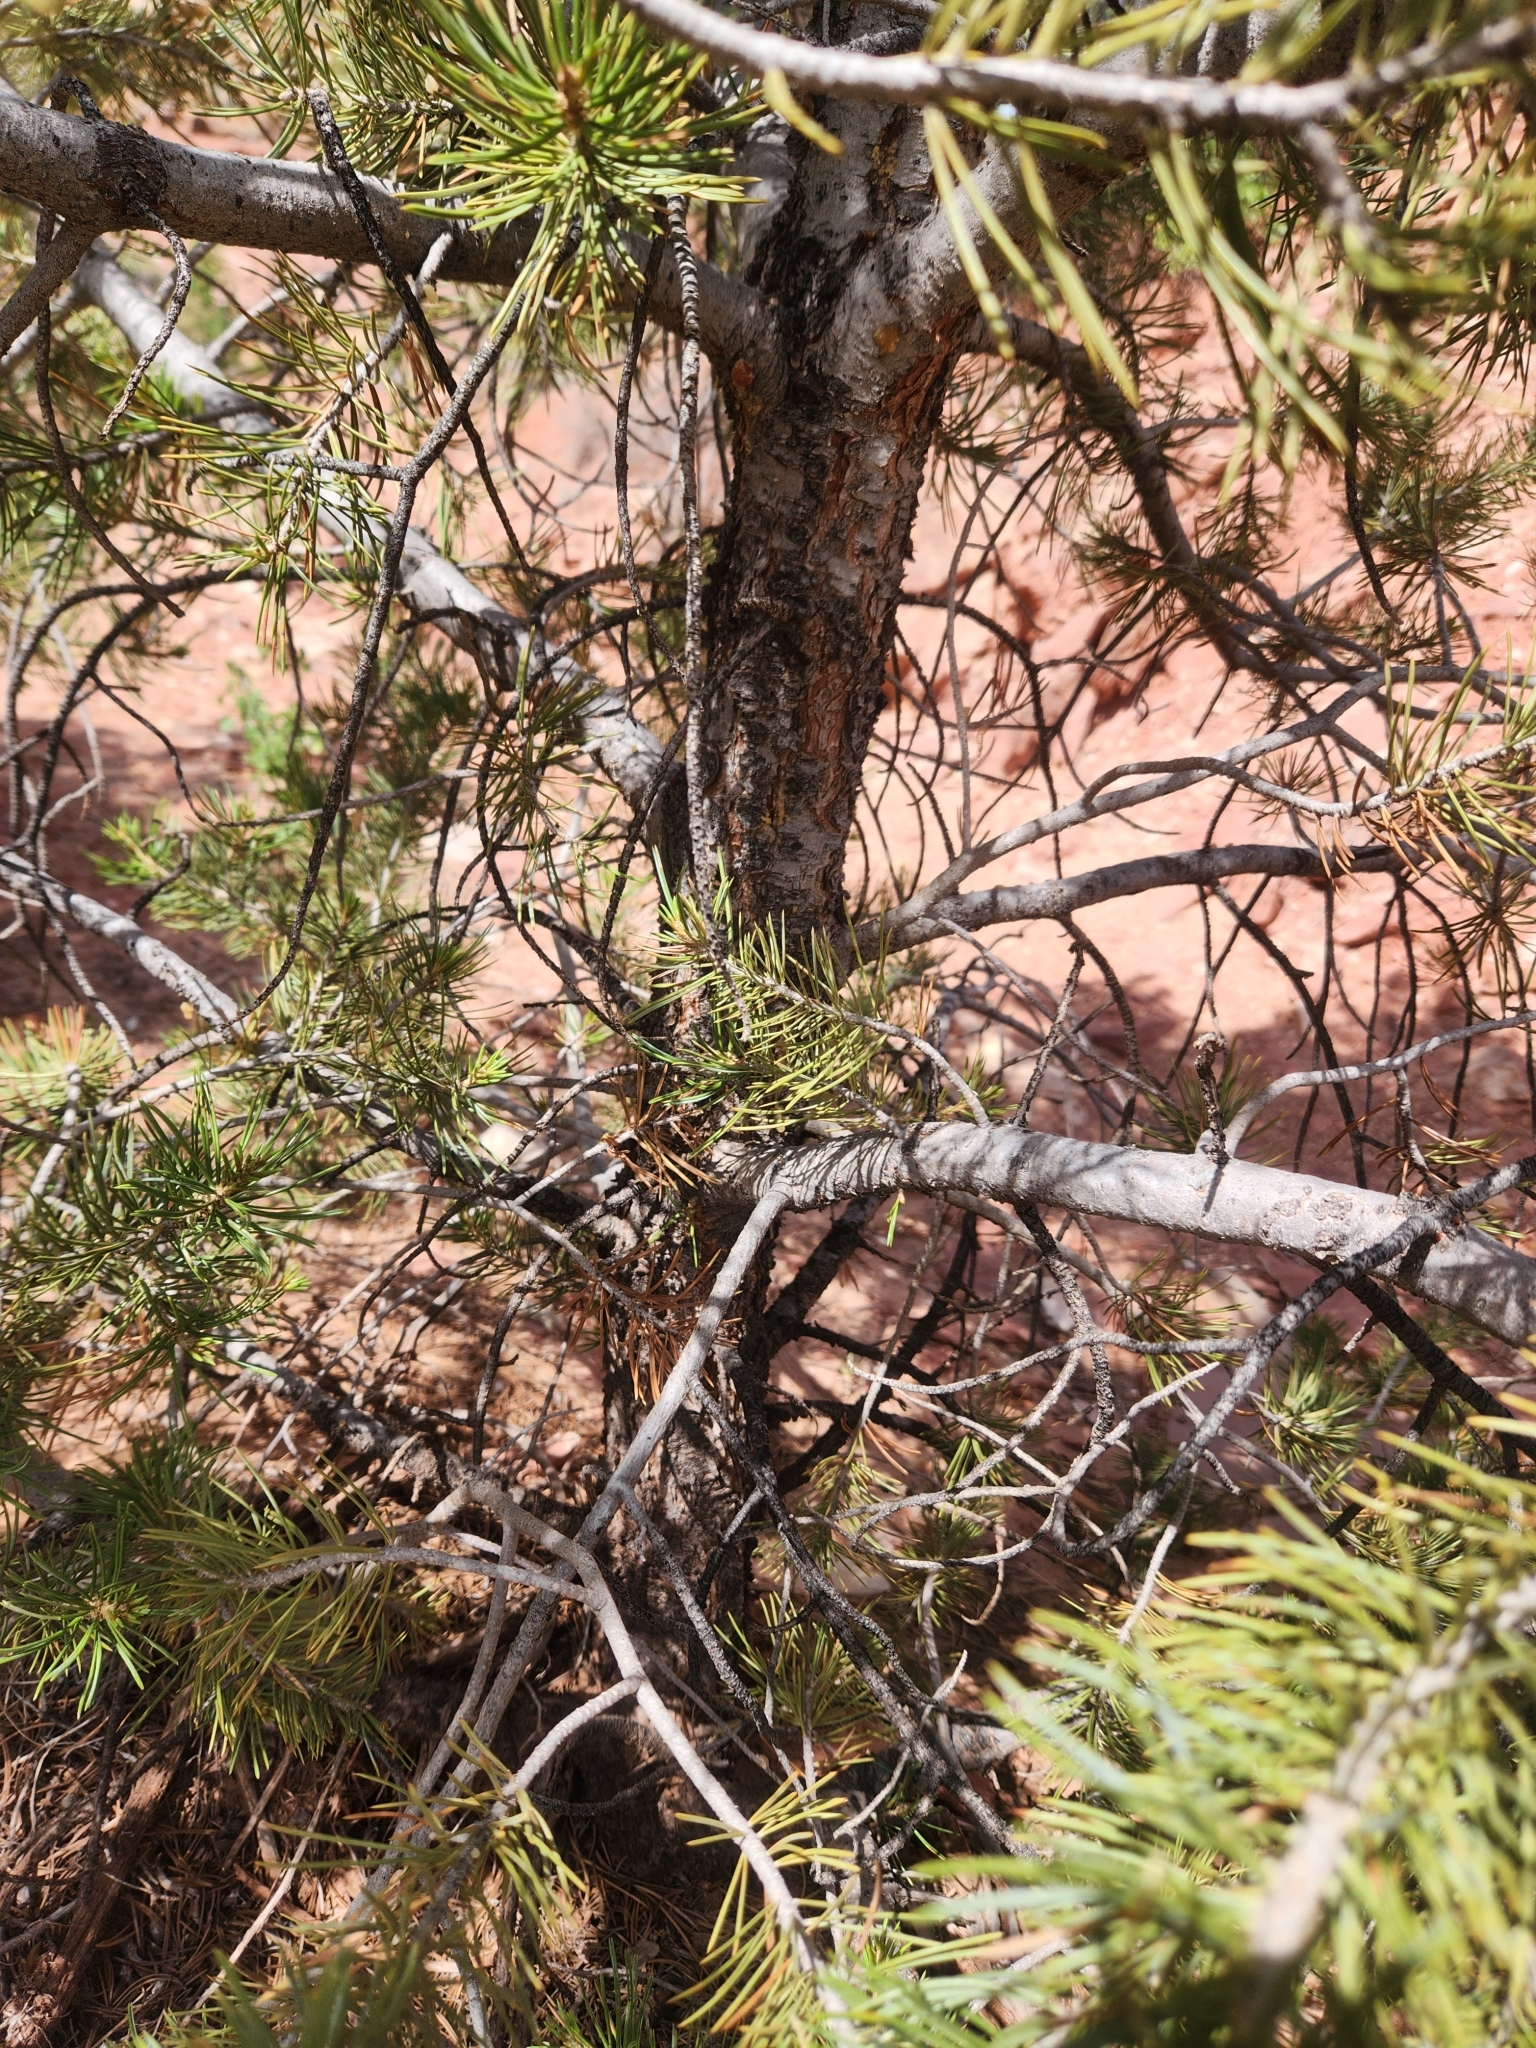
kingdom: Plantae
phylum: Tracheophyta
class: Pinopsida
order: Pinales
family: Pinaceae
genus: Pinus
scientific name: Pinus edulis
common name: Colorado pinyon
